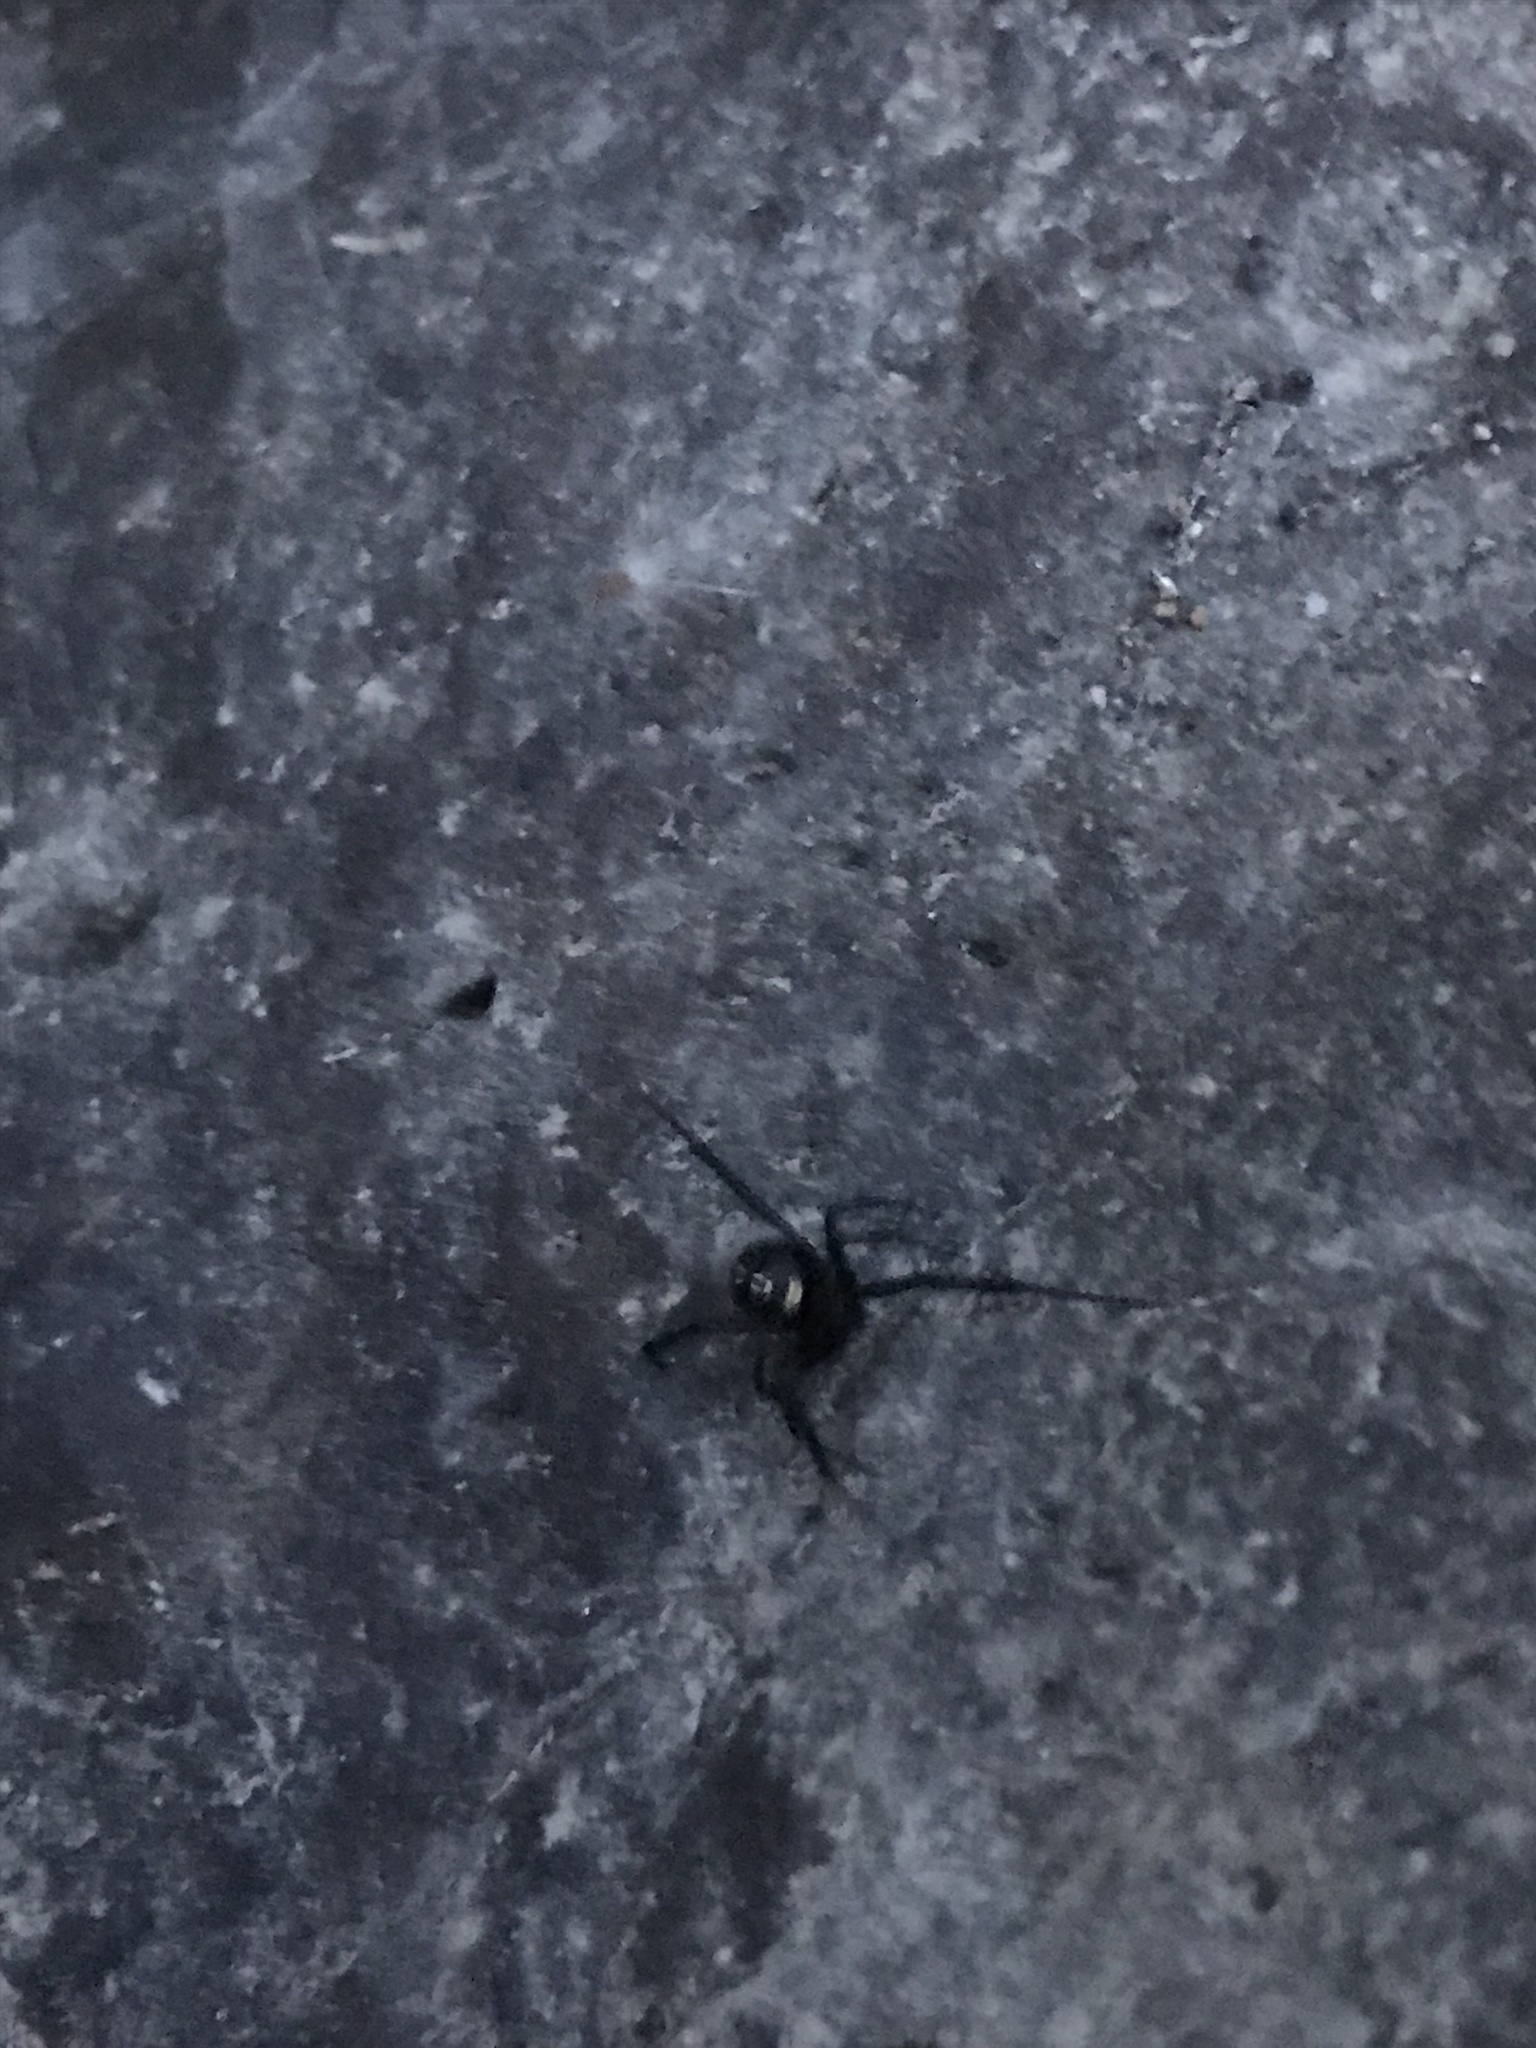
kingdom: Animalia
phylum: Arthropoda
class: Arachnida
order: Araneae
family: Theridiidae
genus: Latrodectus
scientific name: Latrodectus hesperus
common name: Western black widow
